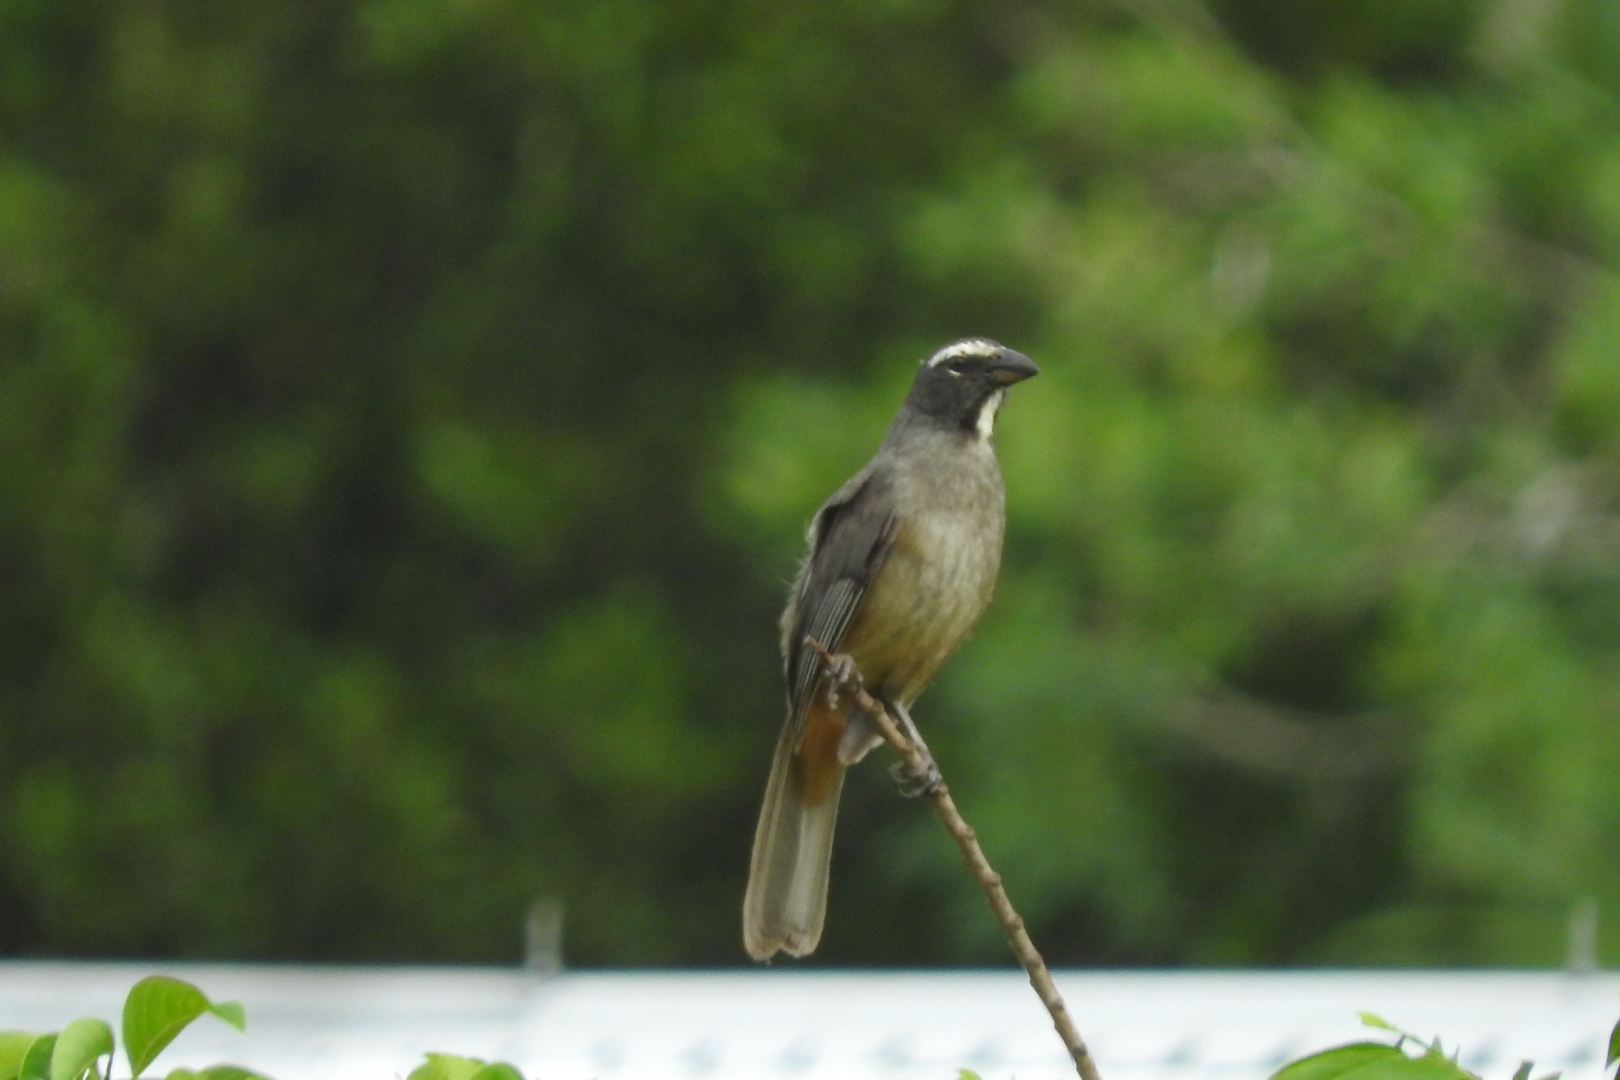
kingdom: Animalia
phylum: Chordata
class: Aves
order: Passeriformes
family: Thraupidae
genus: Saltator
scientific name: Saltator grandis
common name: Cinnamon-bellied saltator
